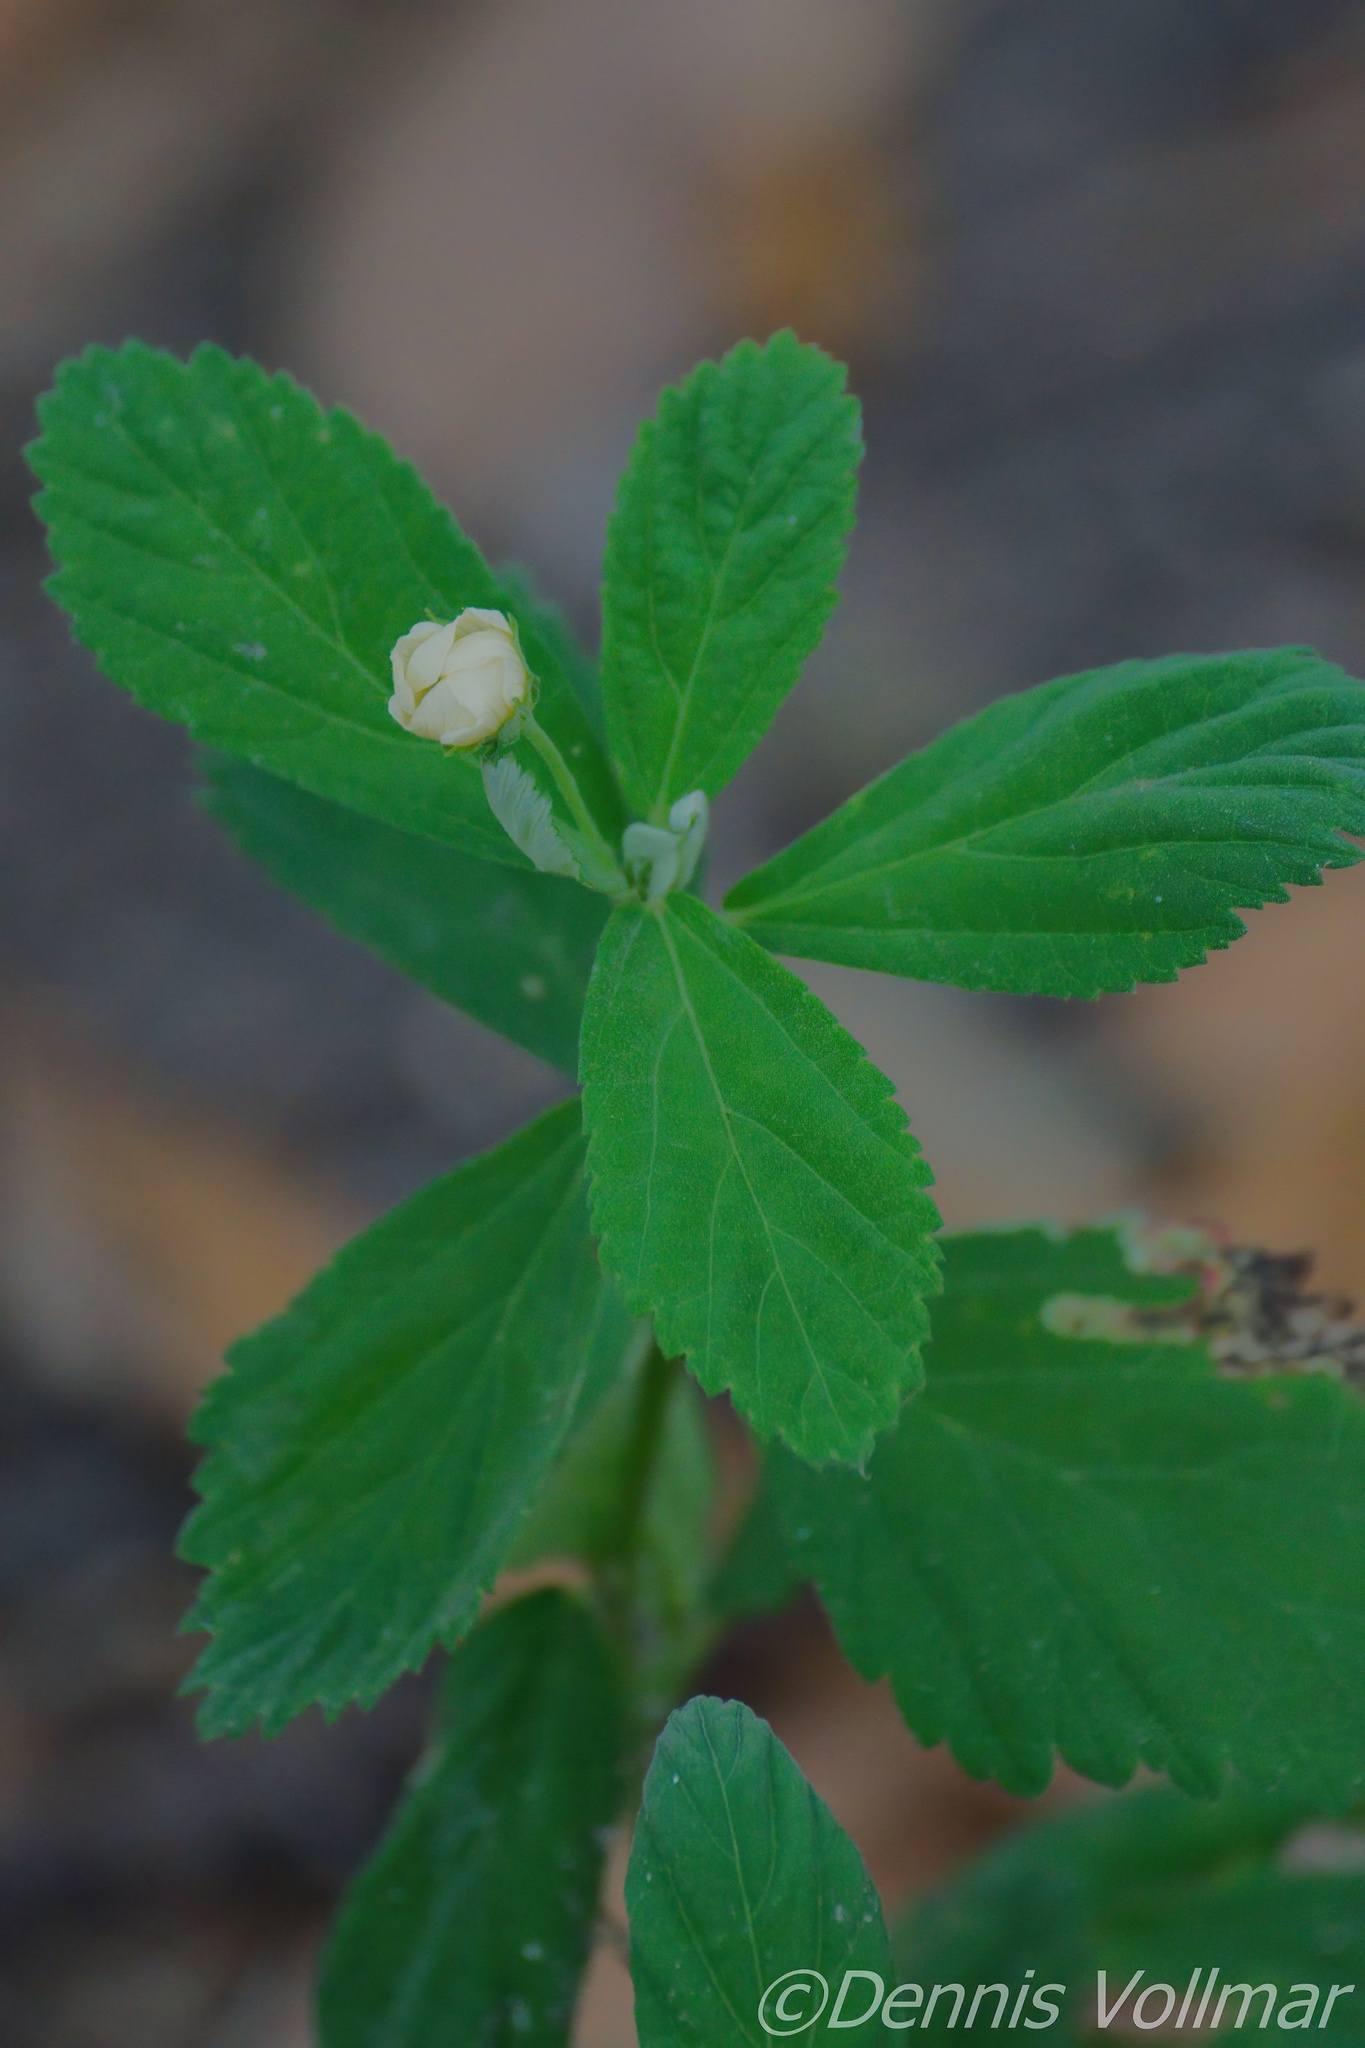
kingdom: Plantae
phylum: Tracheophyta
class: Magnoliopsida
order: Malvales
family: Malvaceae
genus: Sida
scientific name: Sida rhombifolia
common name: Queensland-hemp
